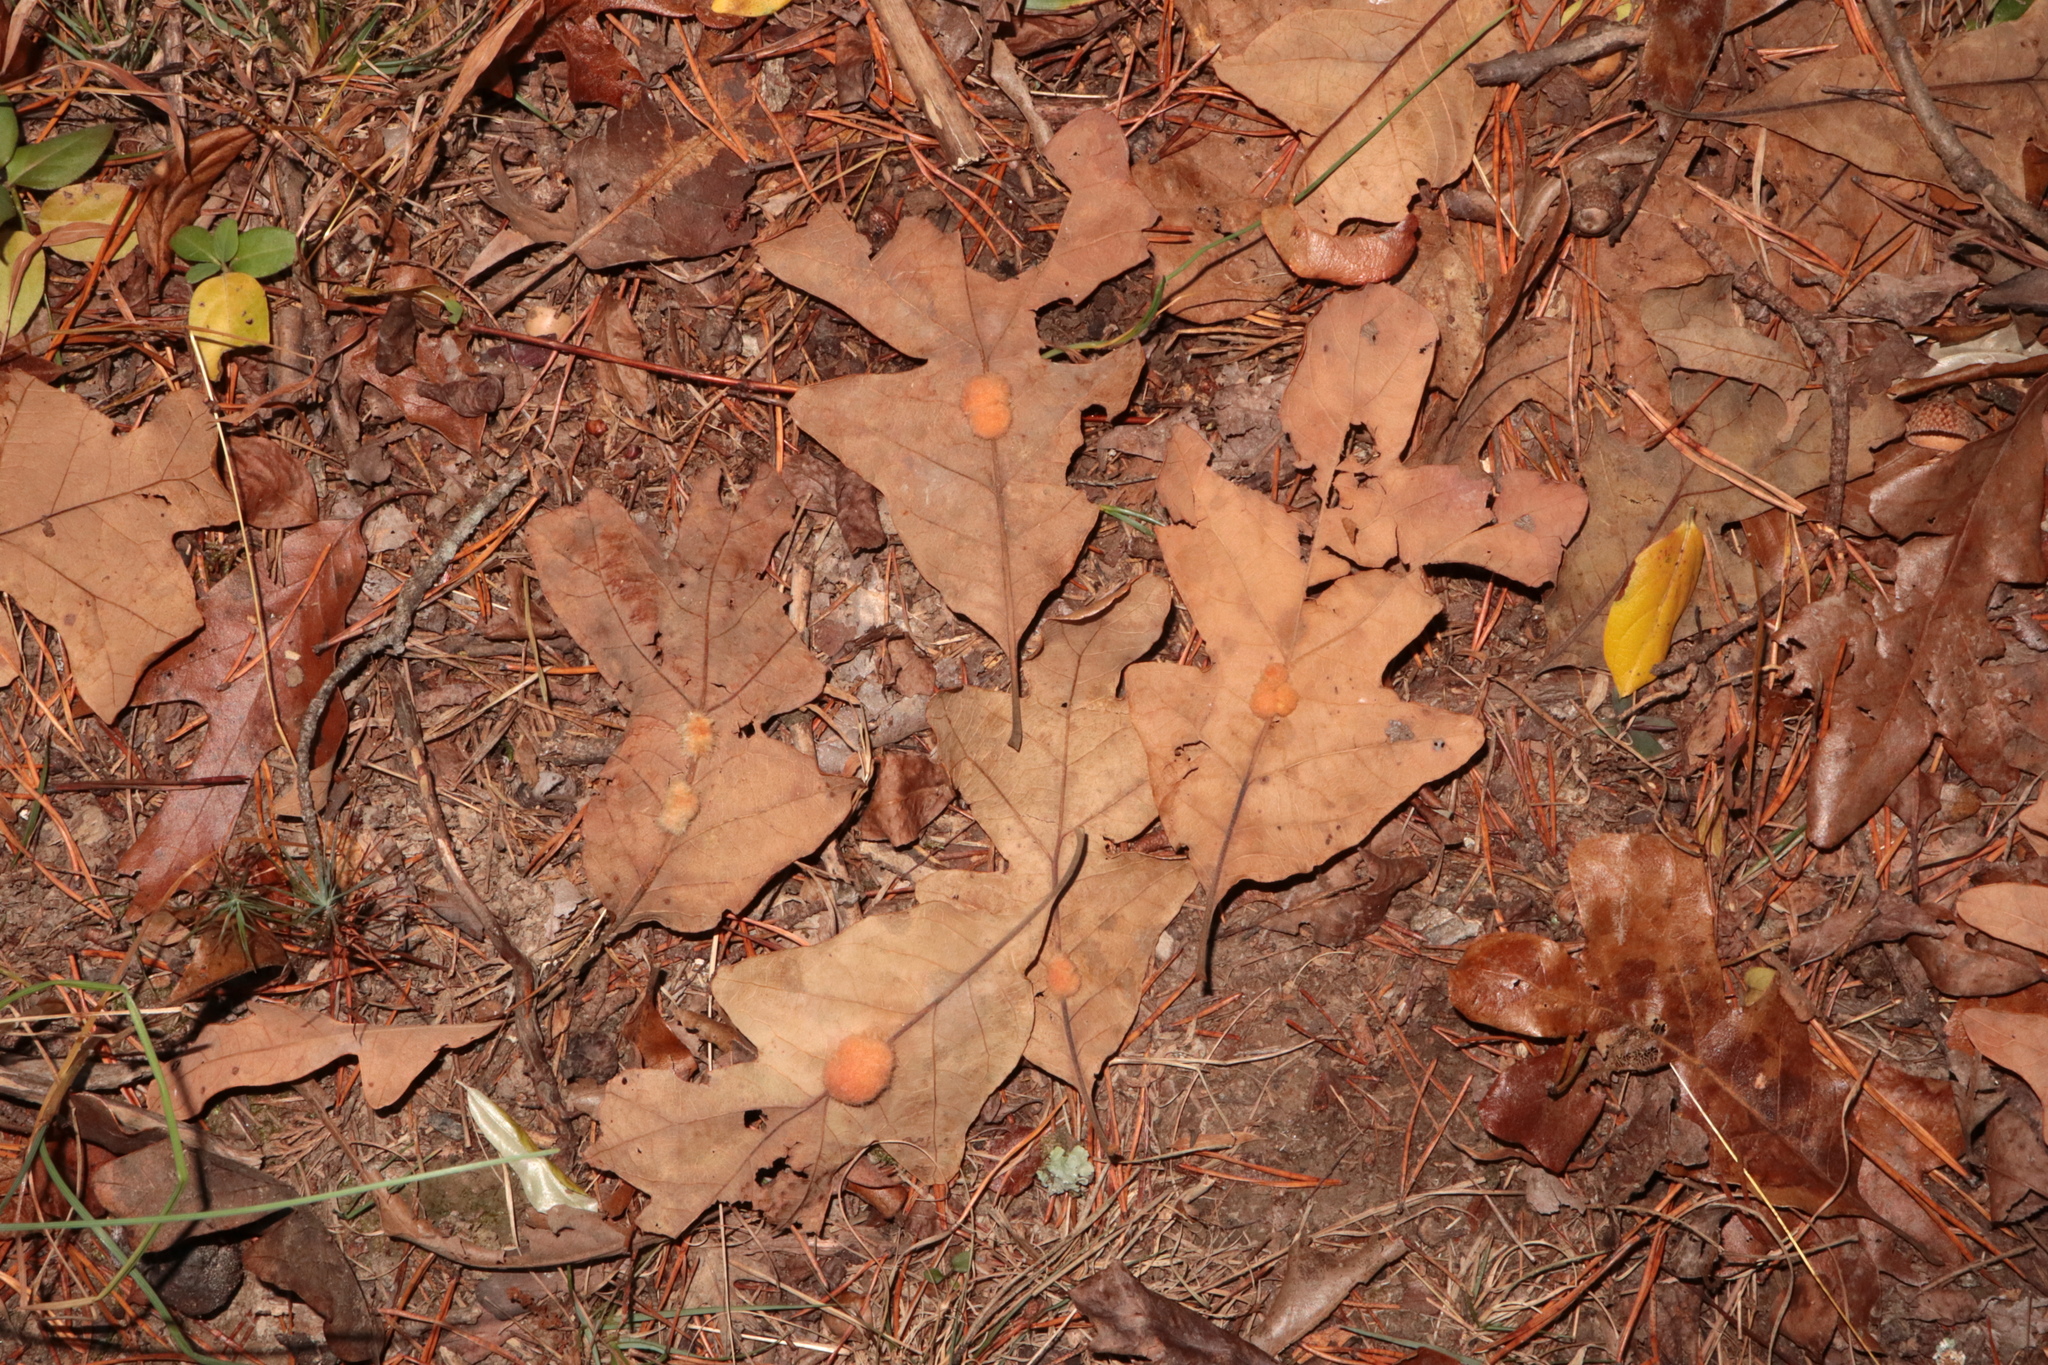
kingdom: Animalia
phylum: Arthropoda
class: Insecta
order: Hymenoptera
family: Cynipidae
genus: Andricus
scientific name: Andricus Druon pattoni
